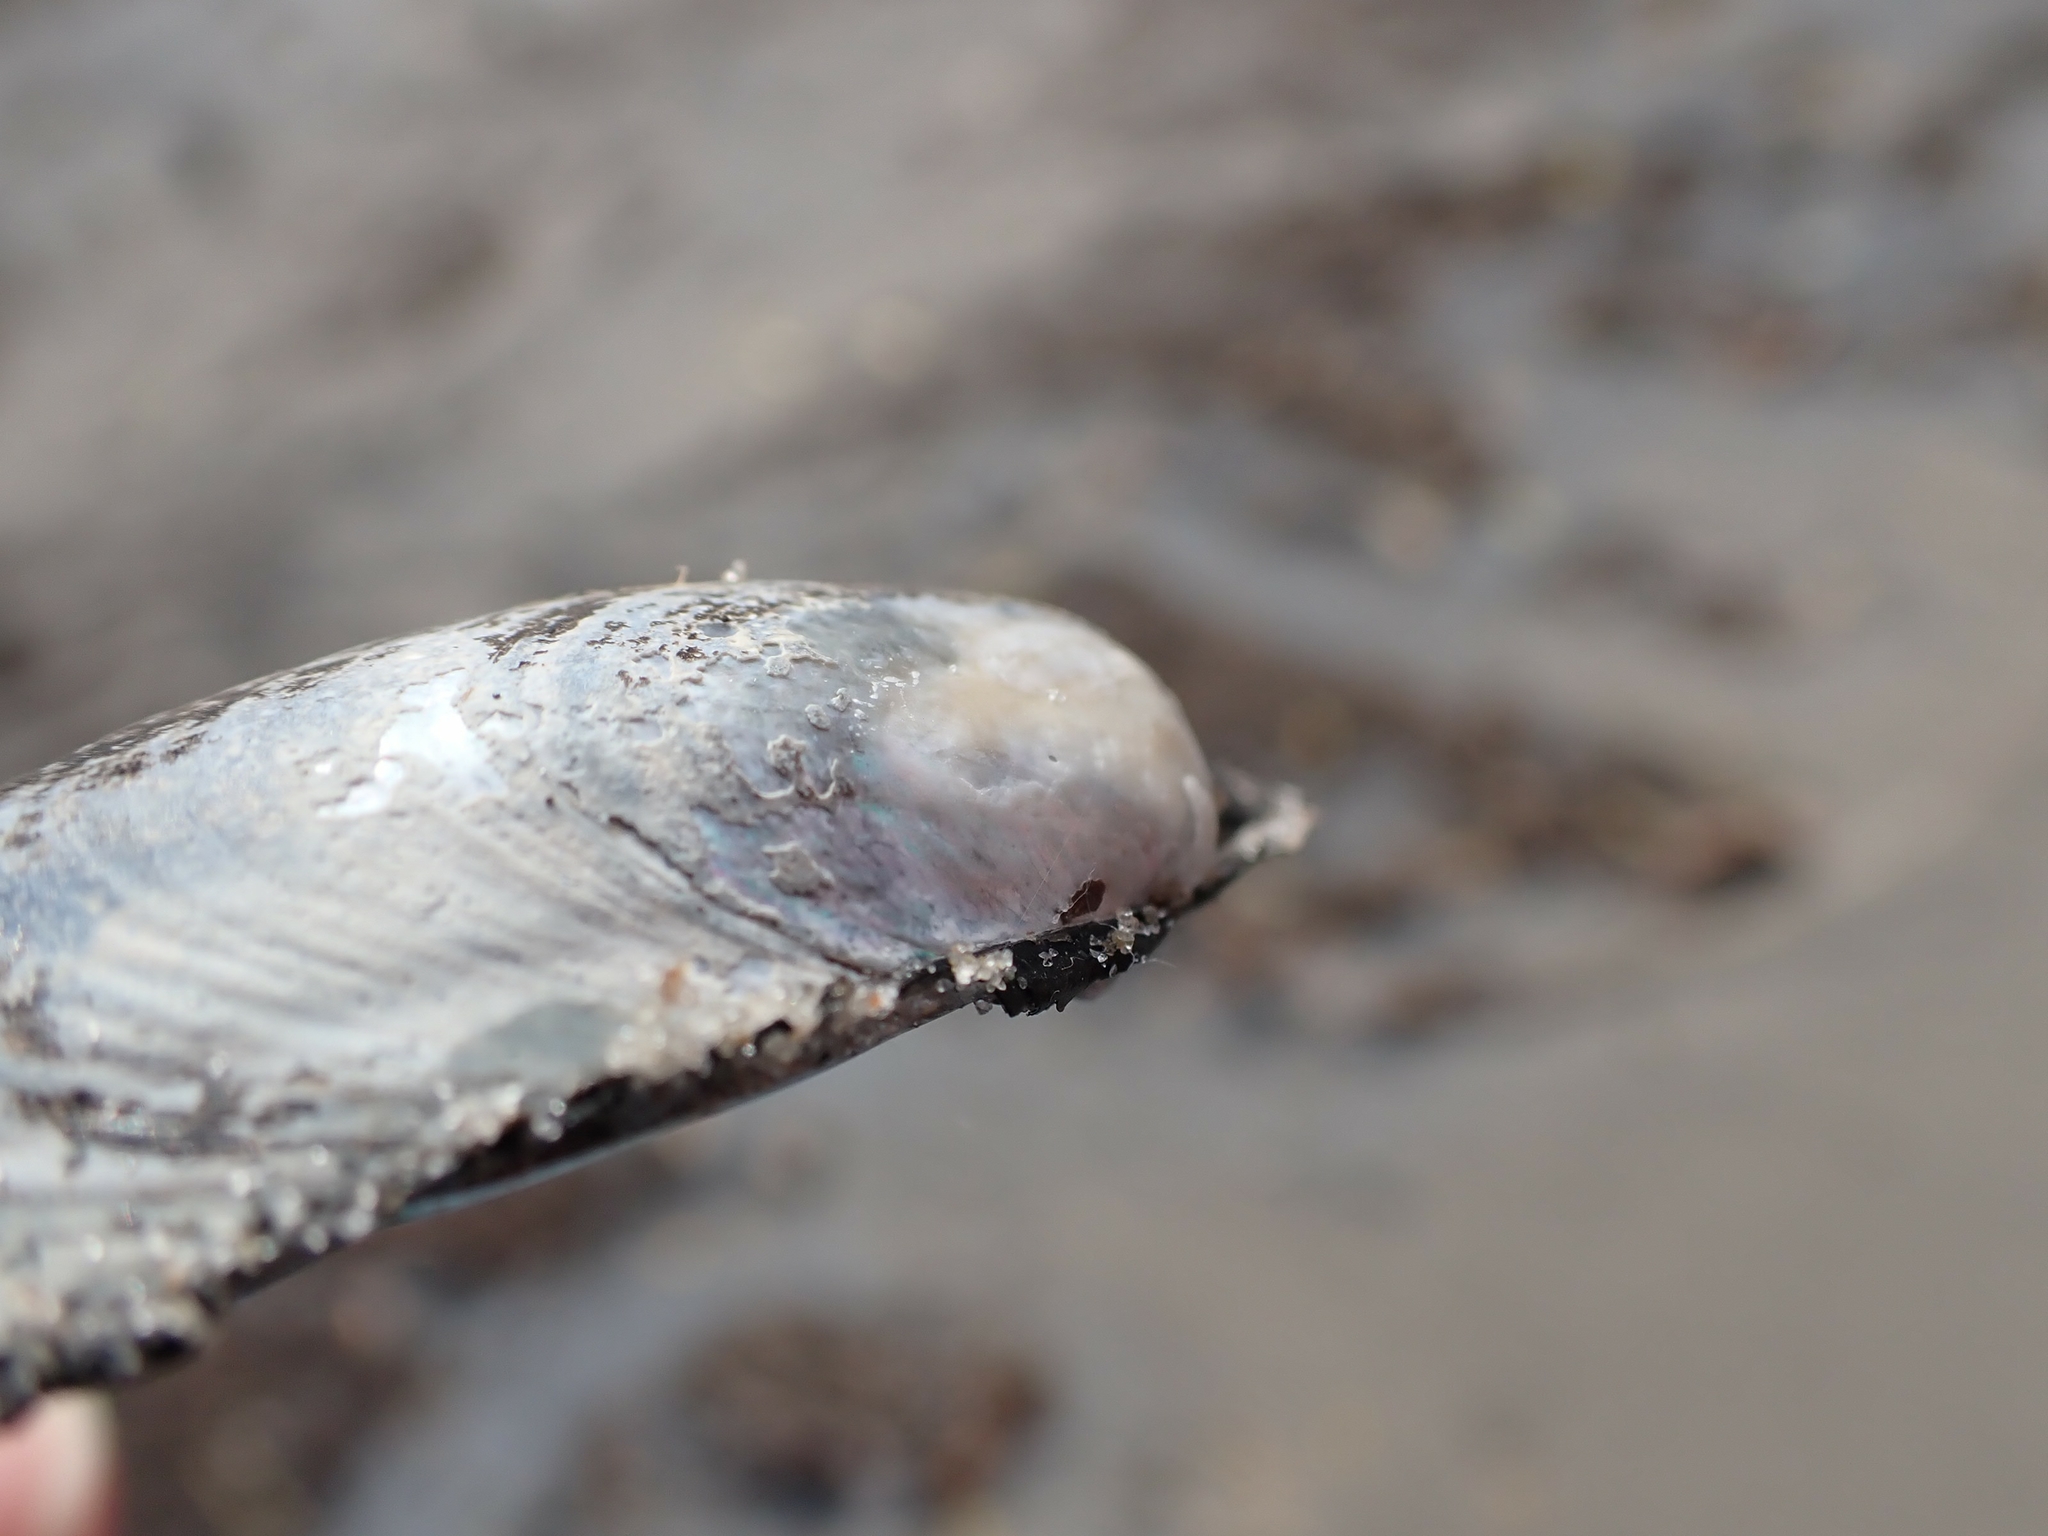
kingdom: Animalia
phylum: Mollusca
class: Bivalvia
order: Unionida
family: Unionidae
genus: Lampsilis
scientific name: Lampsilis siliquoidea
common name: Fatmucket
